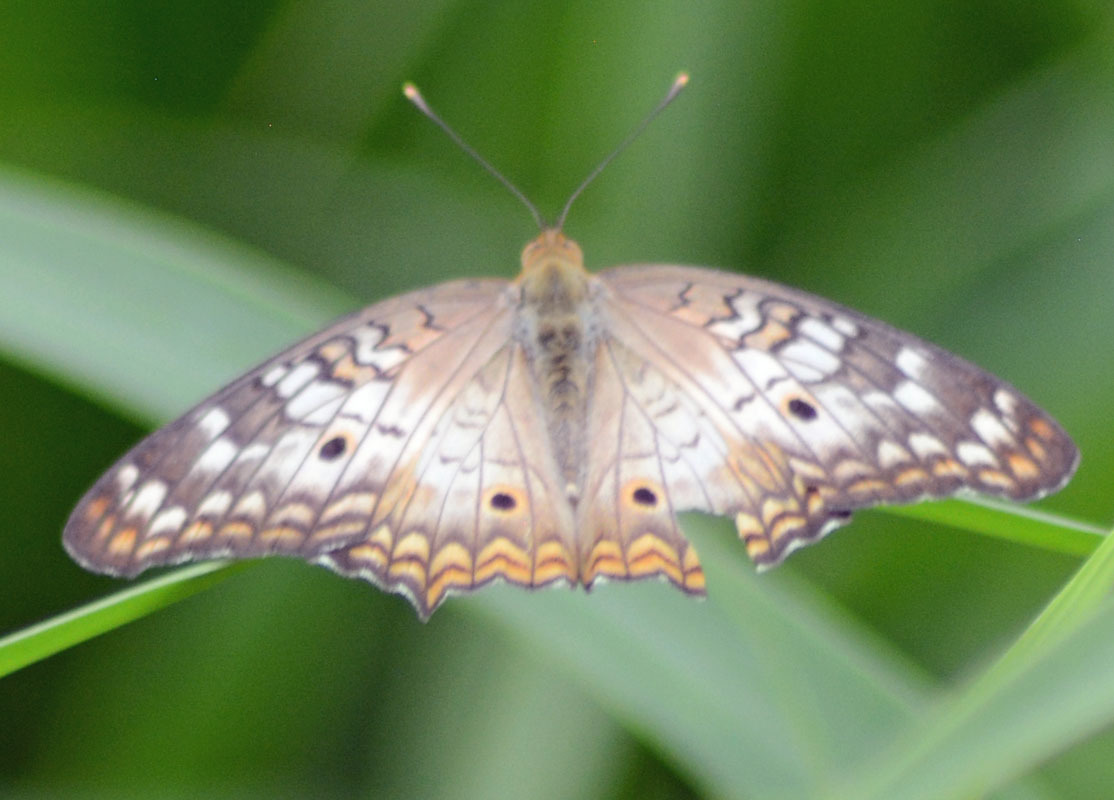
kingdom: Animalia
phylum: Arthropoda
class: Insecta
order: Lepidoptera
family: Nymphalidae
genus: Anartia
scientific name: Anartia jatrophae
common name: White peacock
